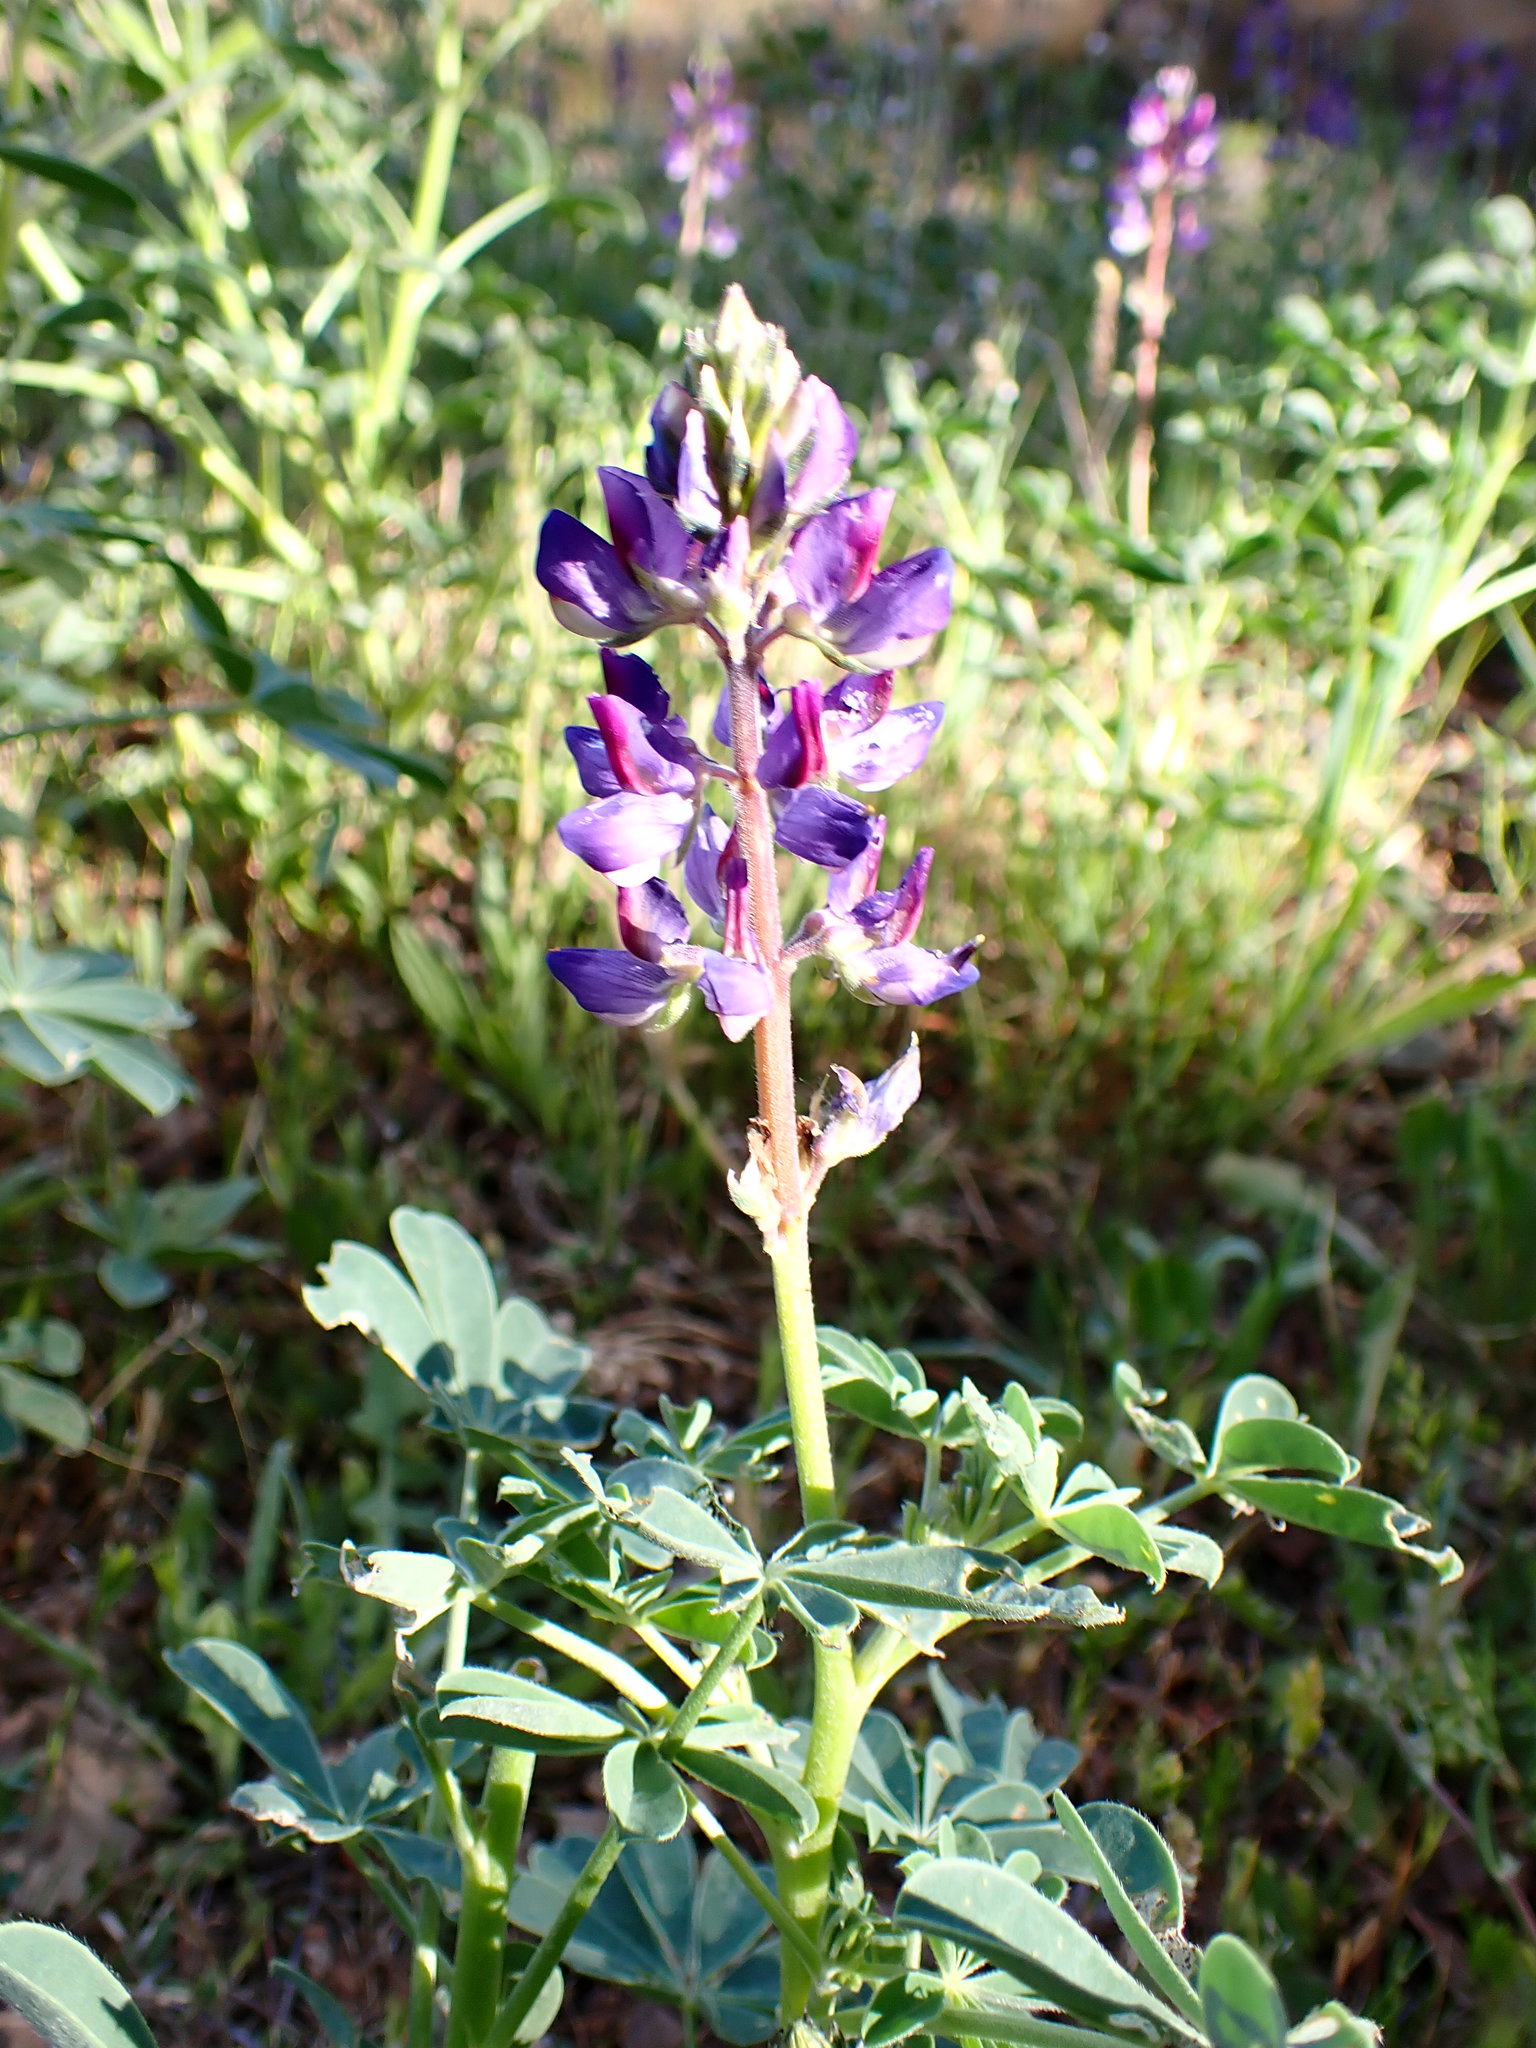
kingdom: Plantae
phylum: Tracheophyta
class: Magnoliopsida
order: Fabales
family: Fabaceae
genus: Lupinus
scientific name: Lupinus succulentus
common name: Arroyo lupine
